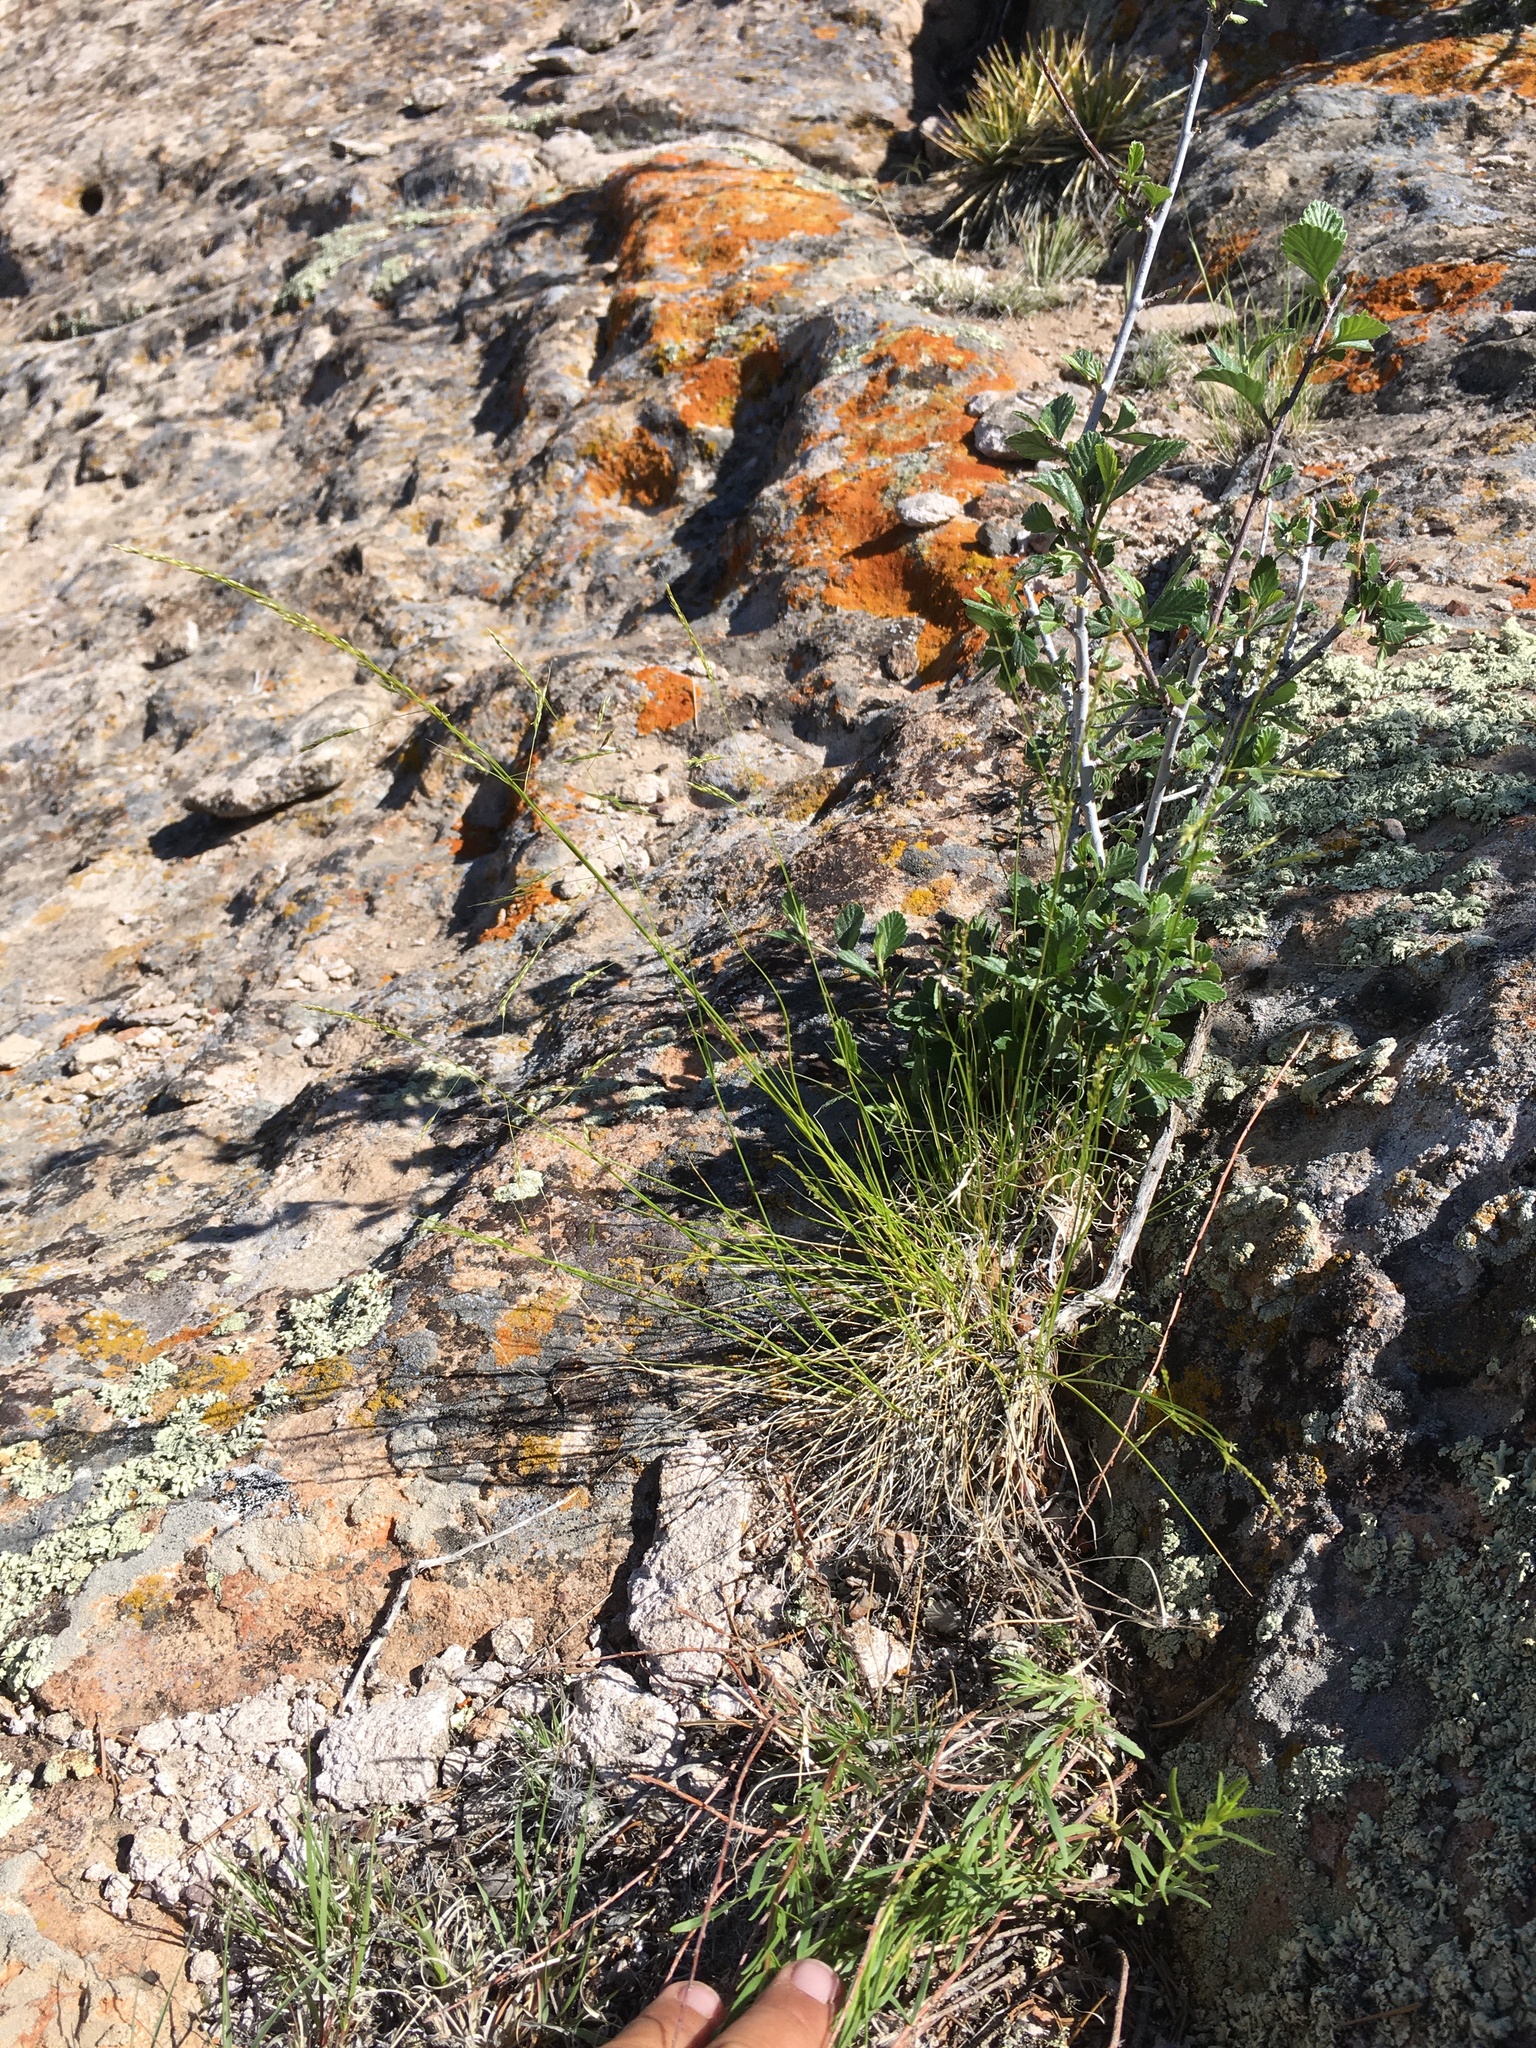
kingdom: Plantae
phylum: Tracheophyta
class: Liliopsida
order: Poales
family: Poaceae
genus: Piptatheropsis
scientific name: Piptatheropsis micrantha
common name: Little-seed mountain ricegrass
